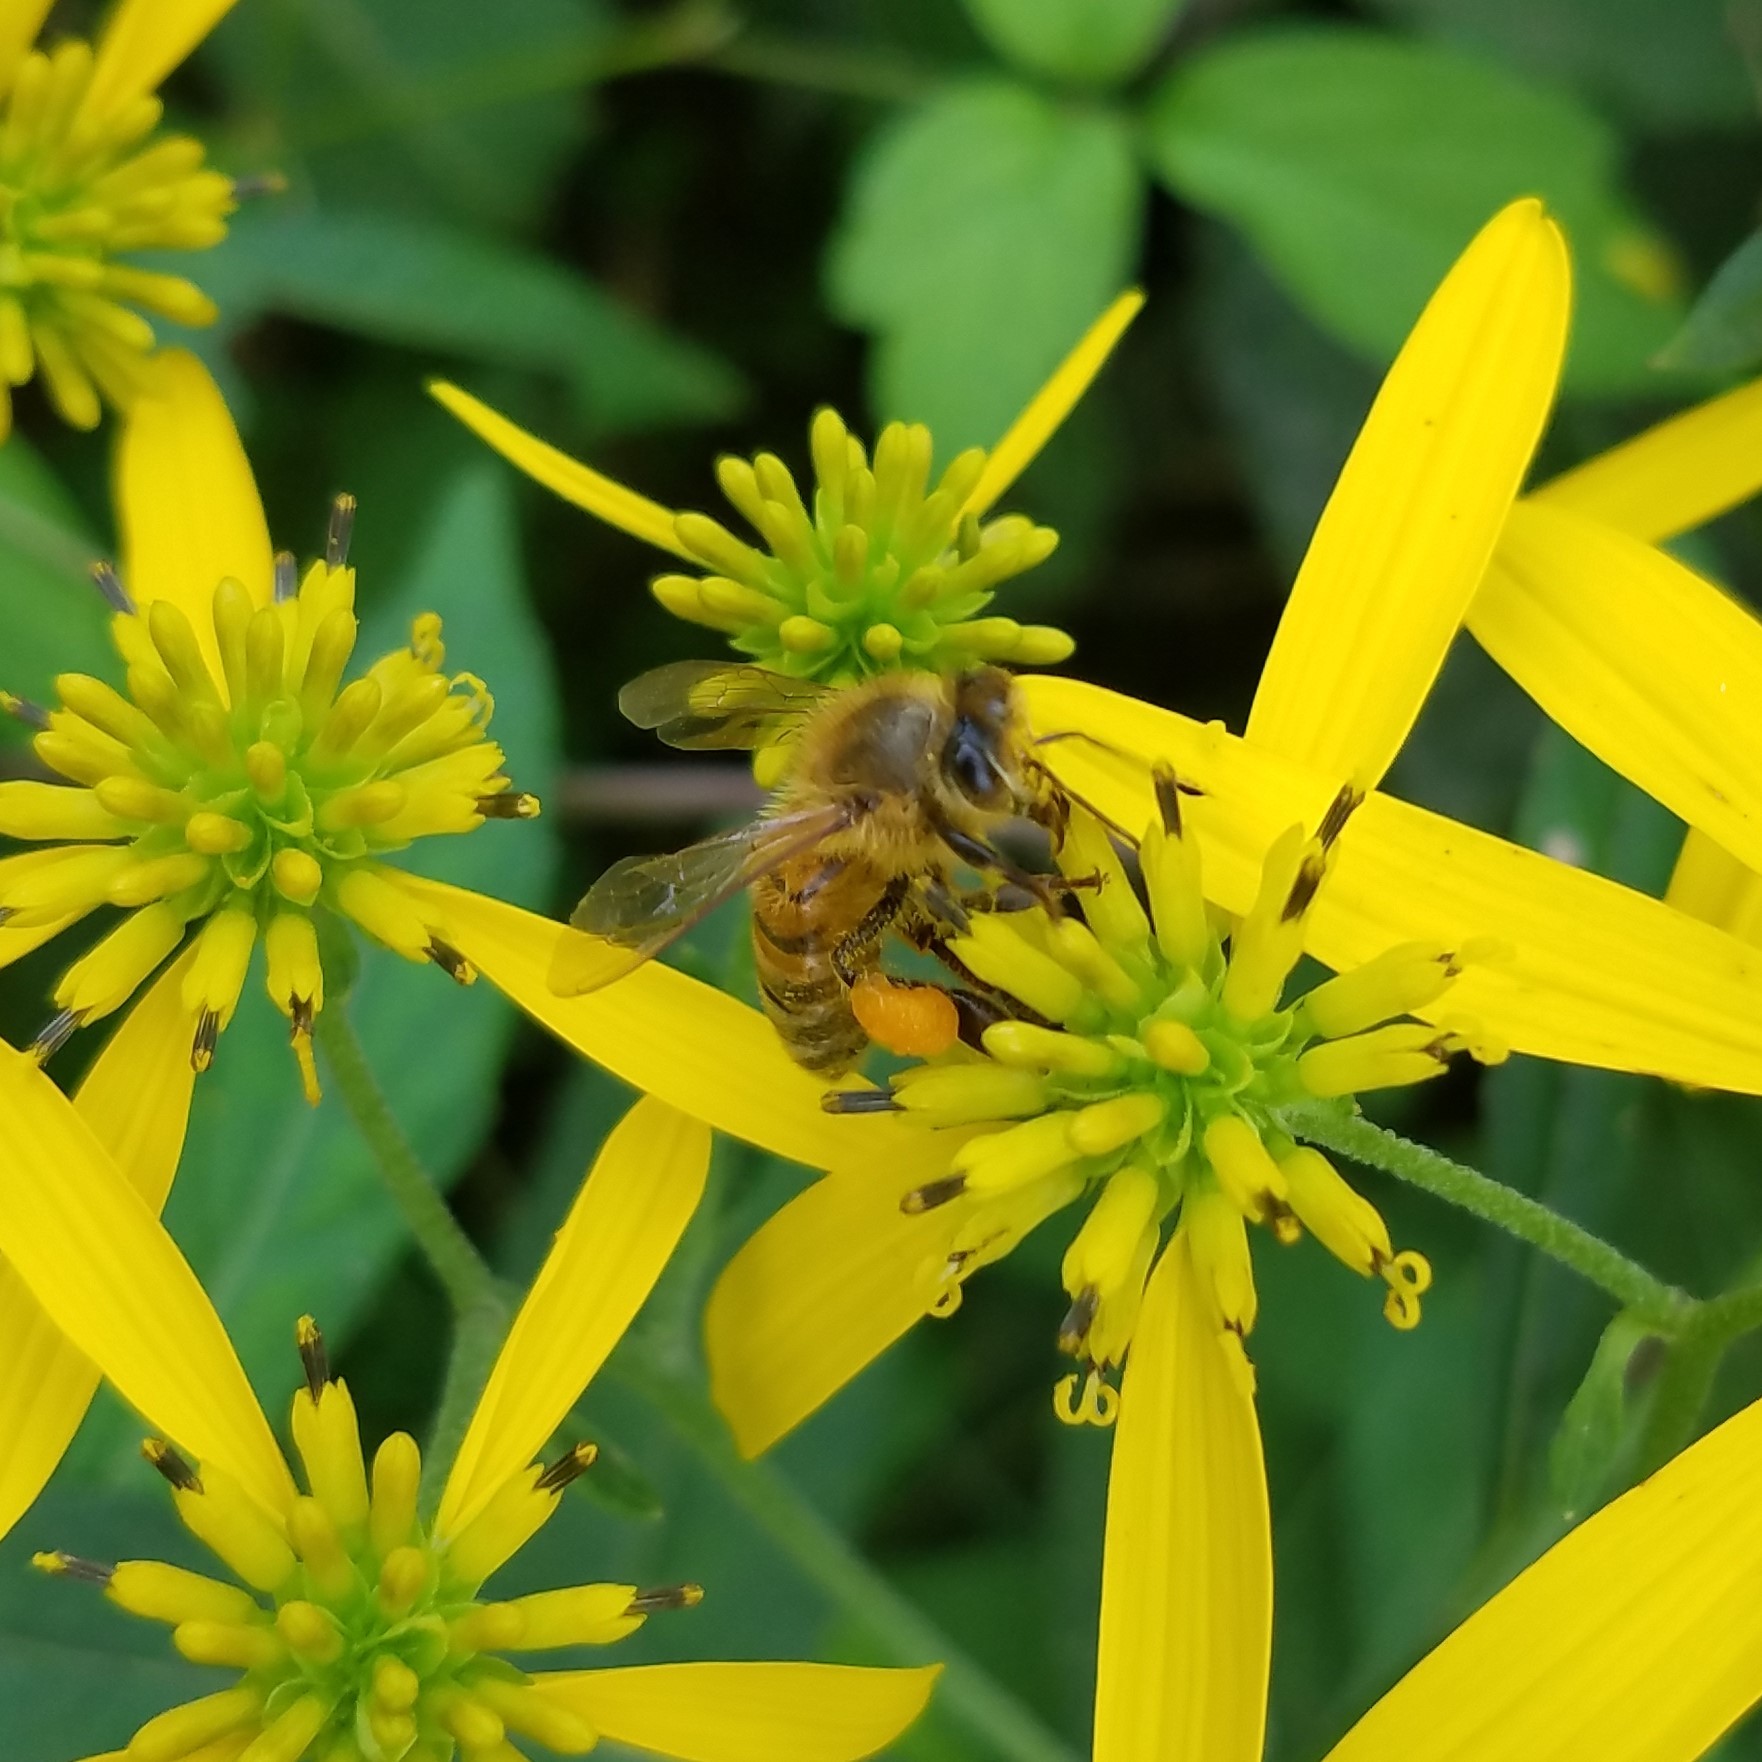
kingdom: Animalia
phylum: Arthropoda
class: Insecta
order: Hymenoptera
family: Apidae
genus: Apis
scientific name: Apis mellifera
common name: Honey bee
